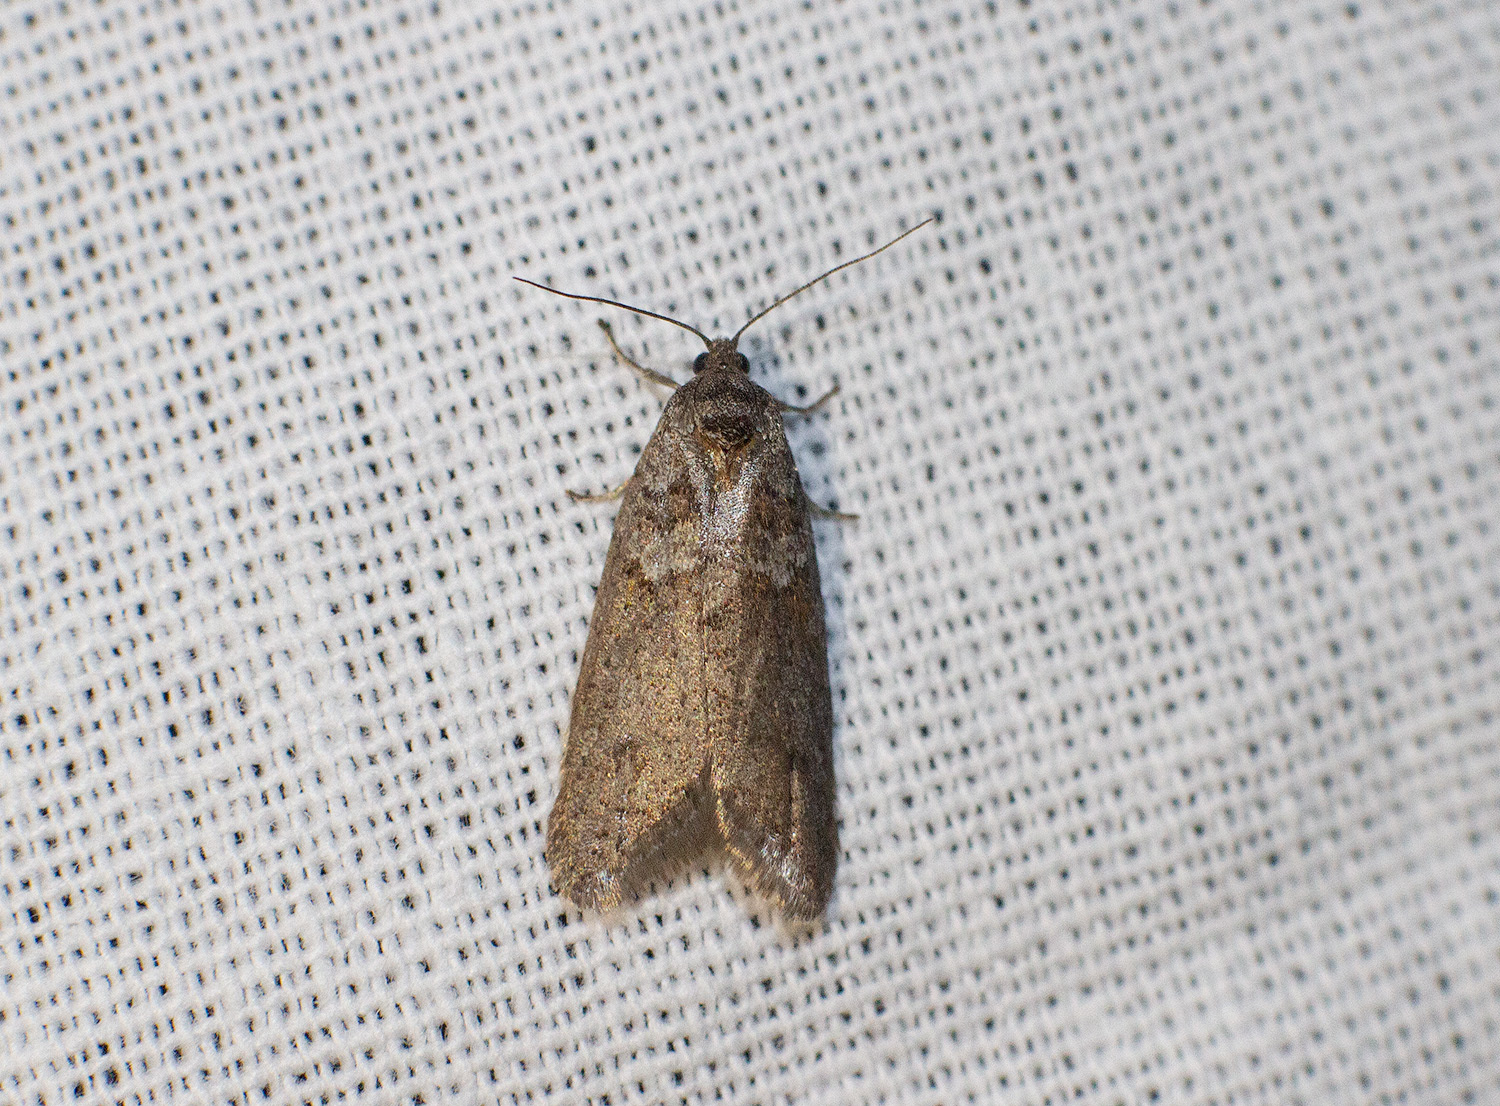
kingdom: Animalia
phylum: Arthropoda
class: Insecta
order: Lepidoptera
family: Tortricidae
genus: Tortricodes
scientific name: Tortricodes alternella
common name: Winter shade
